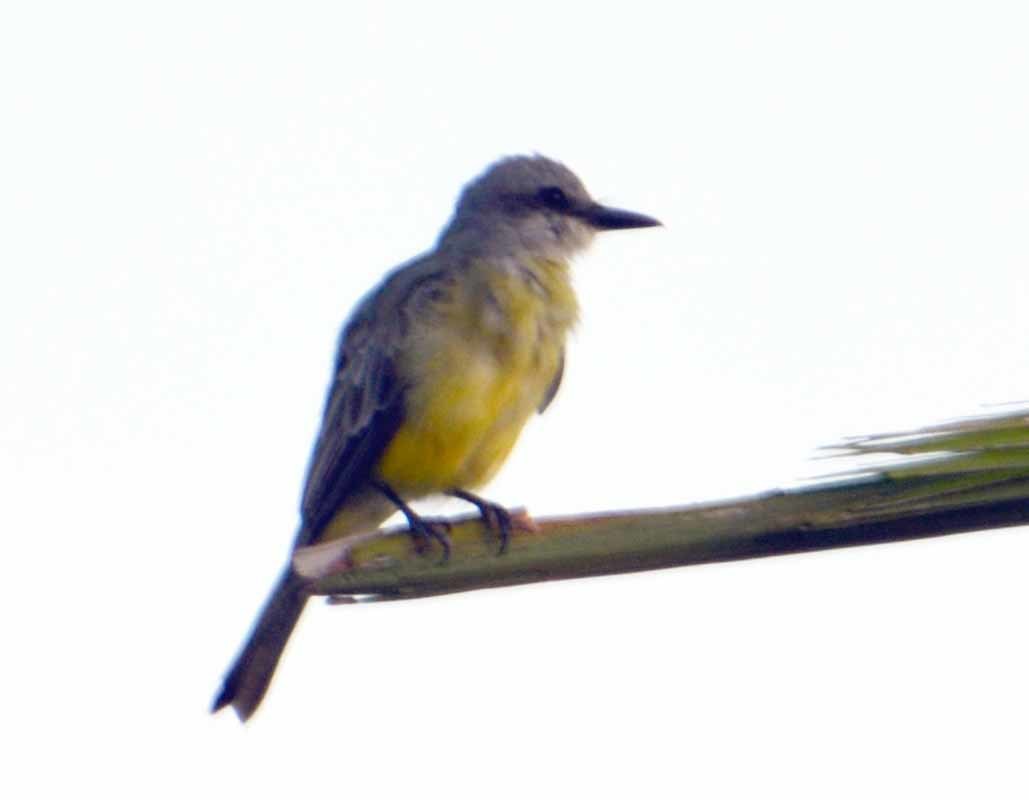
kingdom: Animalia
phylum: Chordata
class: Aves
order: Passeriformes
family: Tyrannidae
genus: Tyrannus
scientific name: Tyrannus melancholicus
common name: Tropical kingbird
